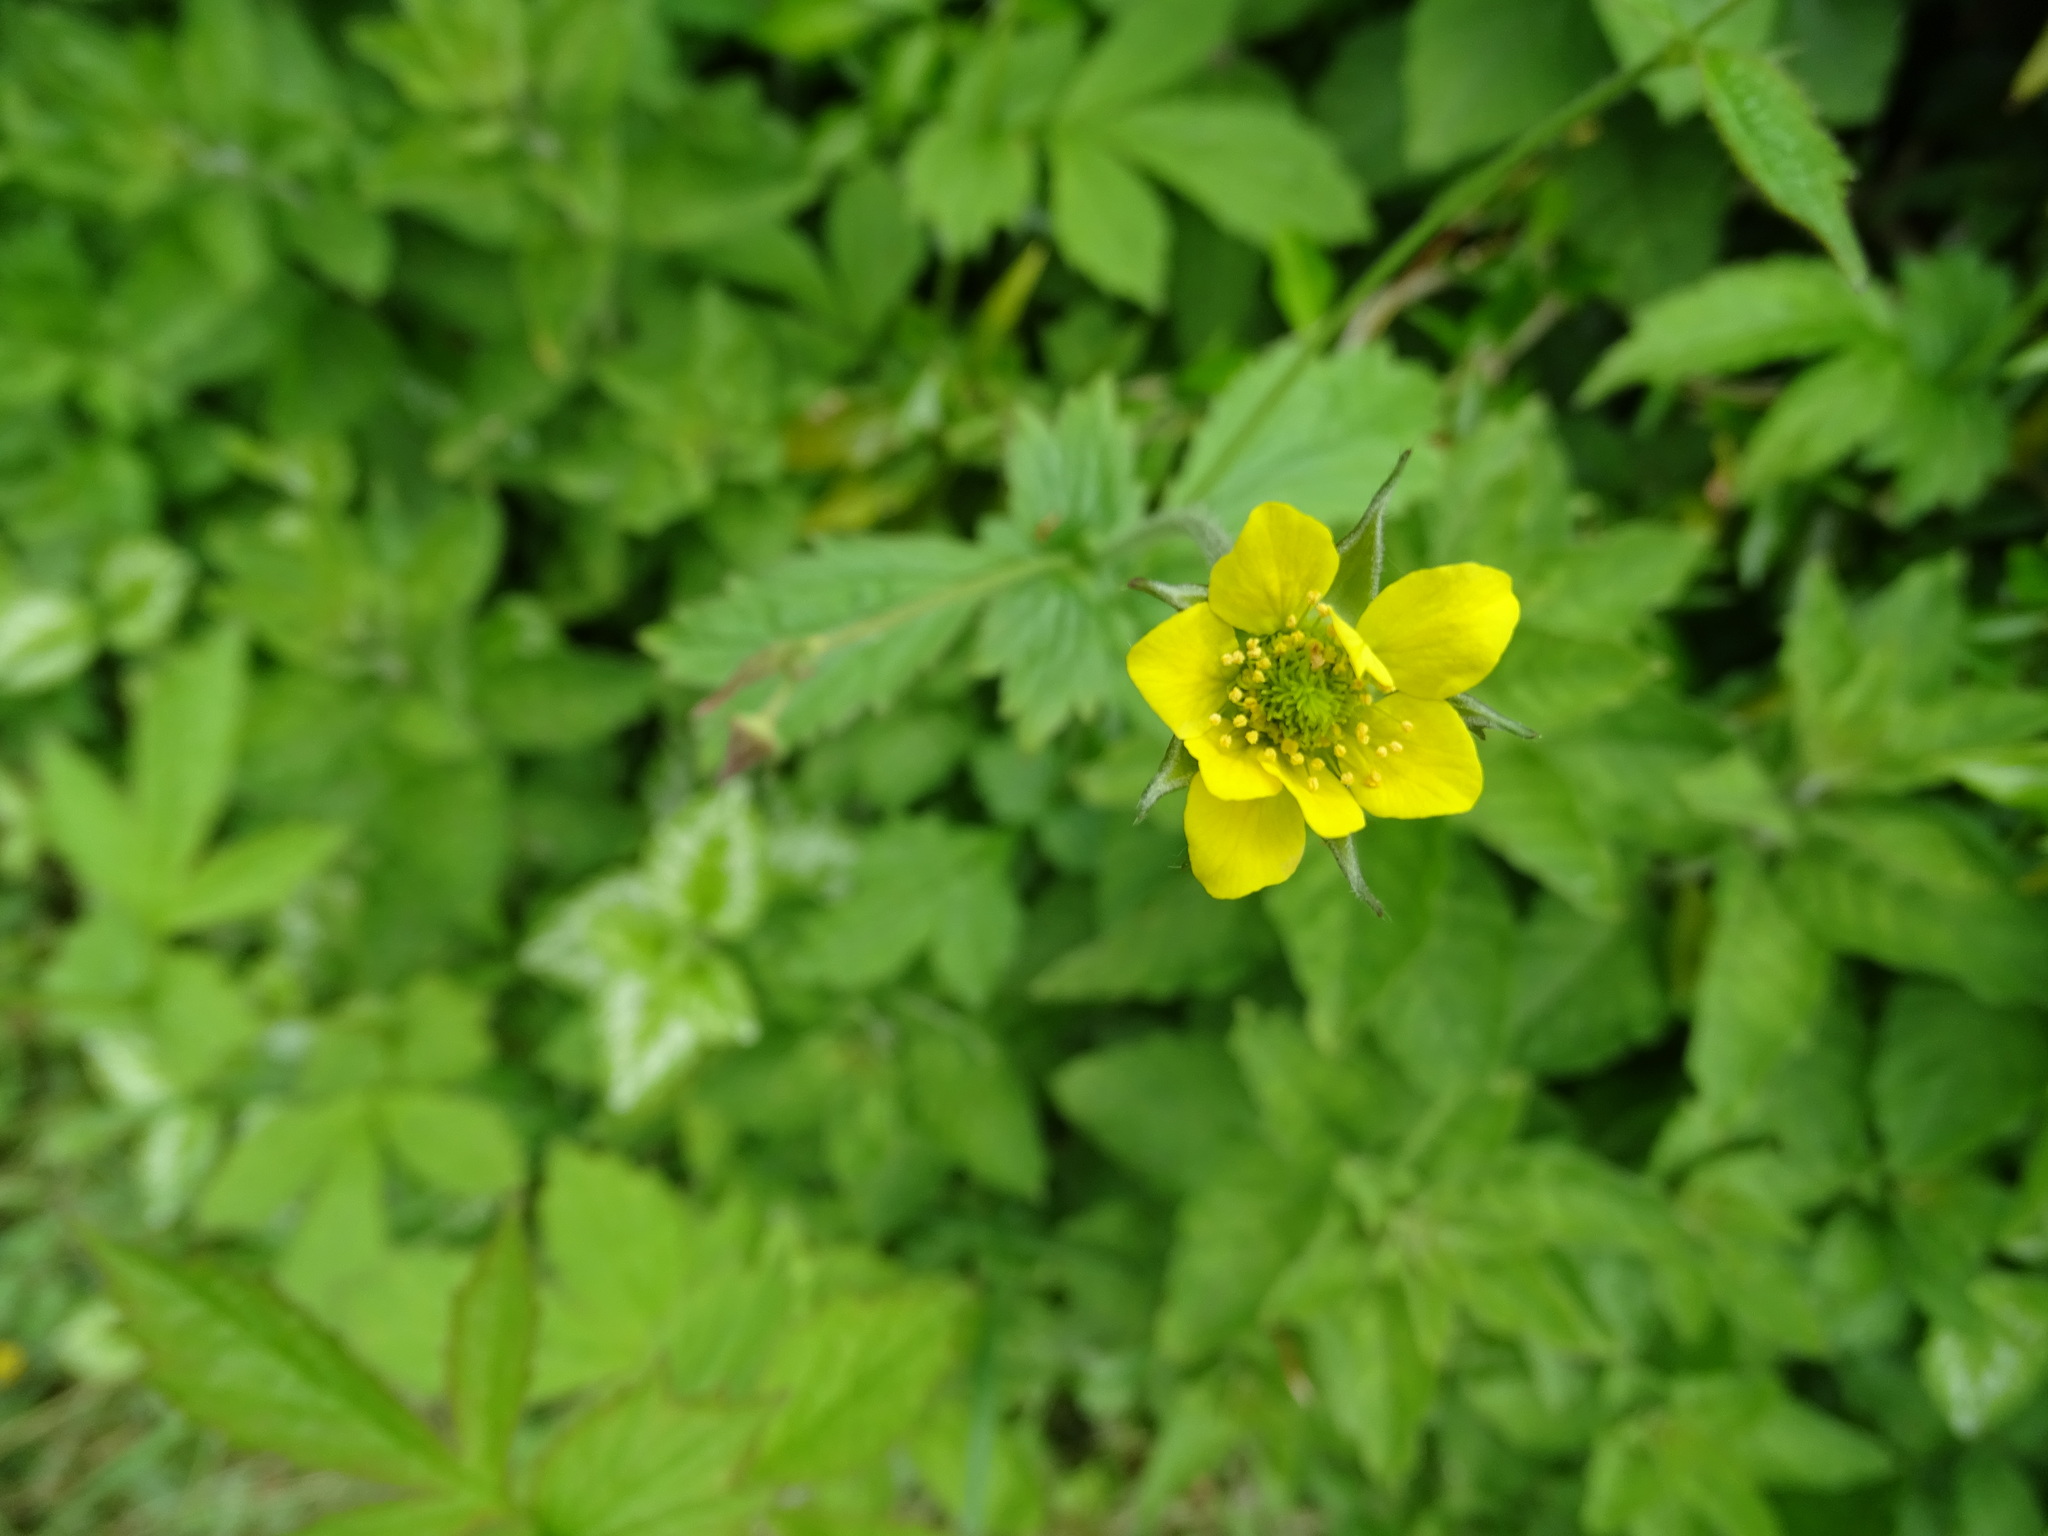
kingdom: Plantae
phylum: Tracheophyta
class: Magnoliopsida
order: Rosales
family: Rosaceae
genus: Geum
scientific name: Geum urbanum
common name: Wood avens
